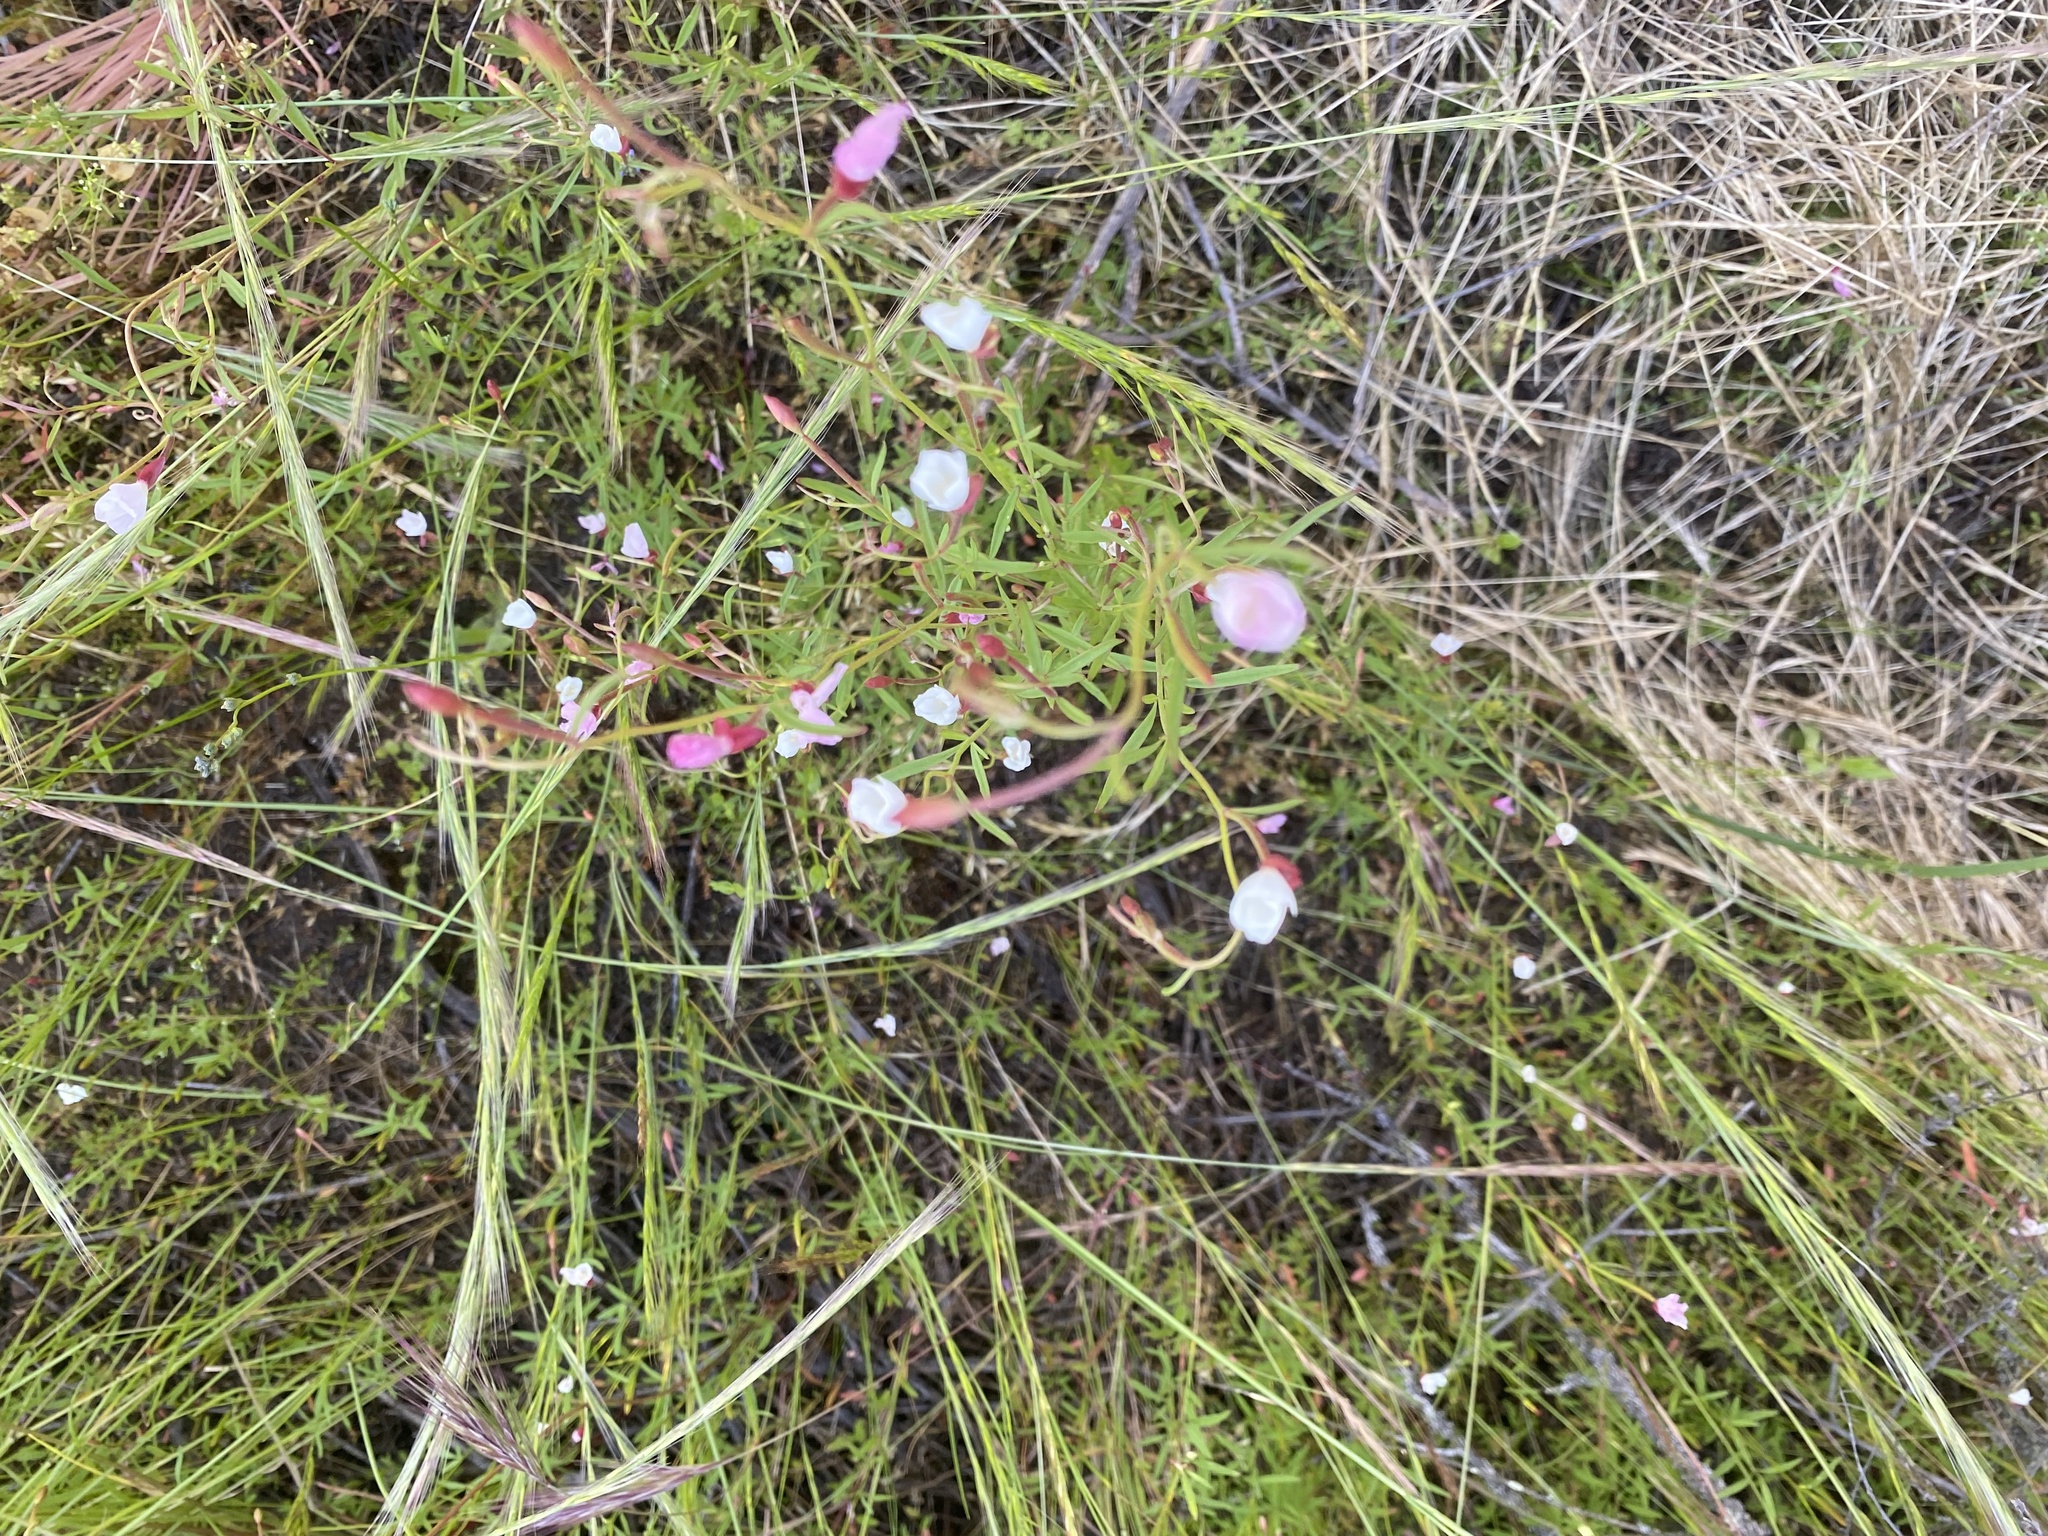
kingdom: Plantae
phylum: Tracheophyta
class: Magnoliopsida
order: Myrtales
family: Onagraceae
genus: Clarkia
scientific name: Clarkia epilobioides
